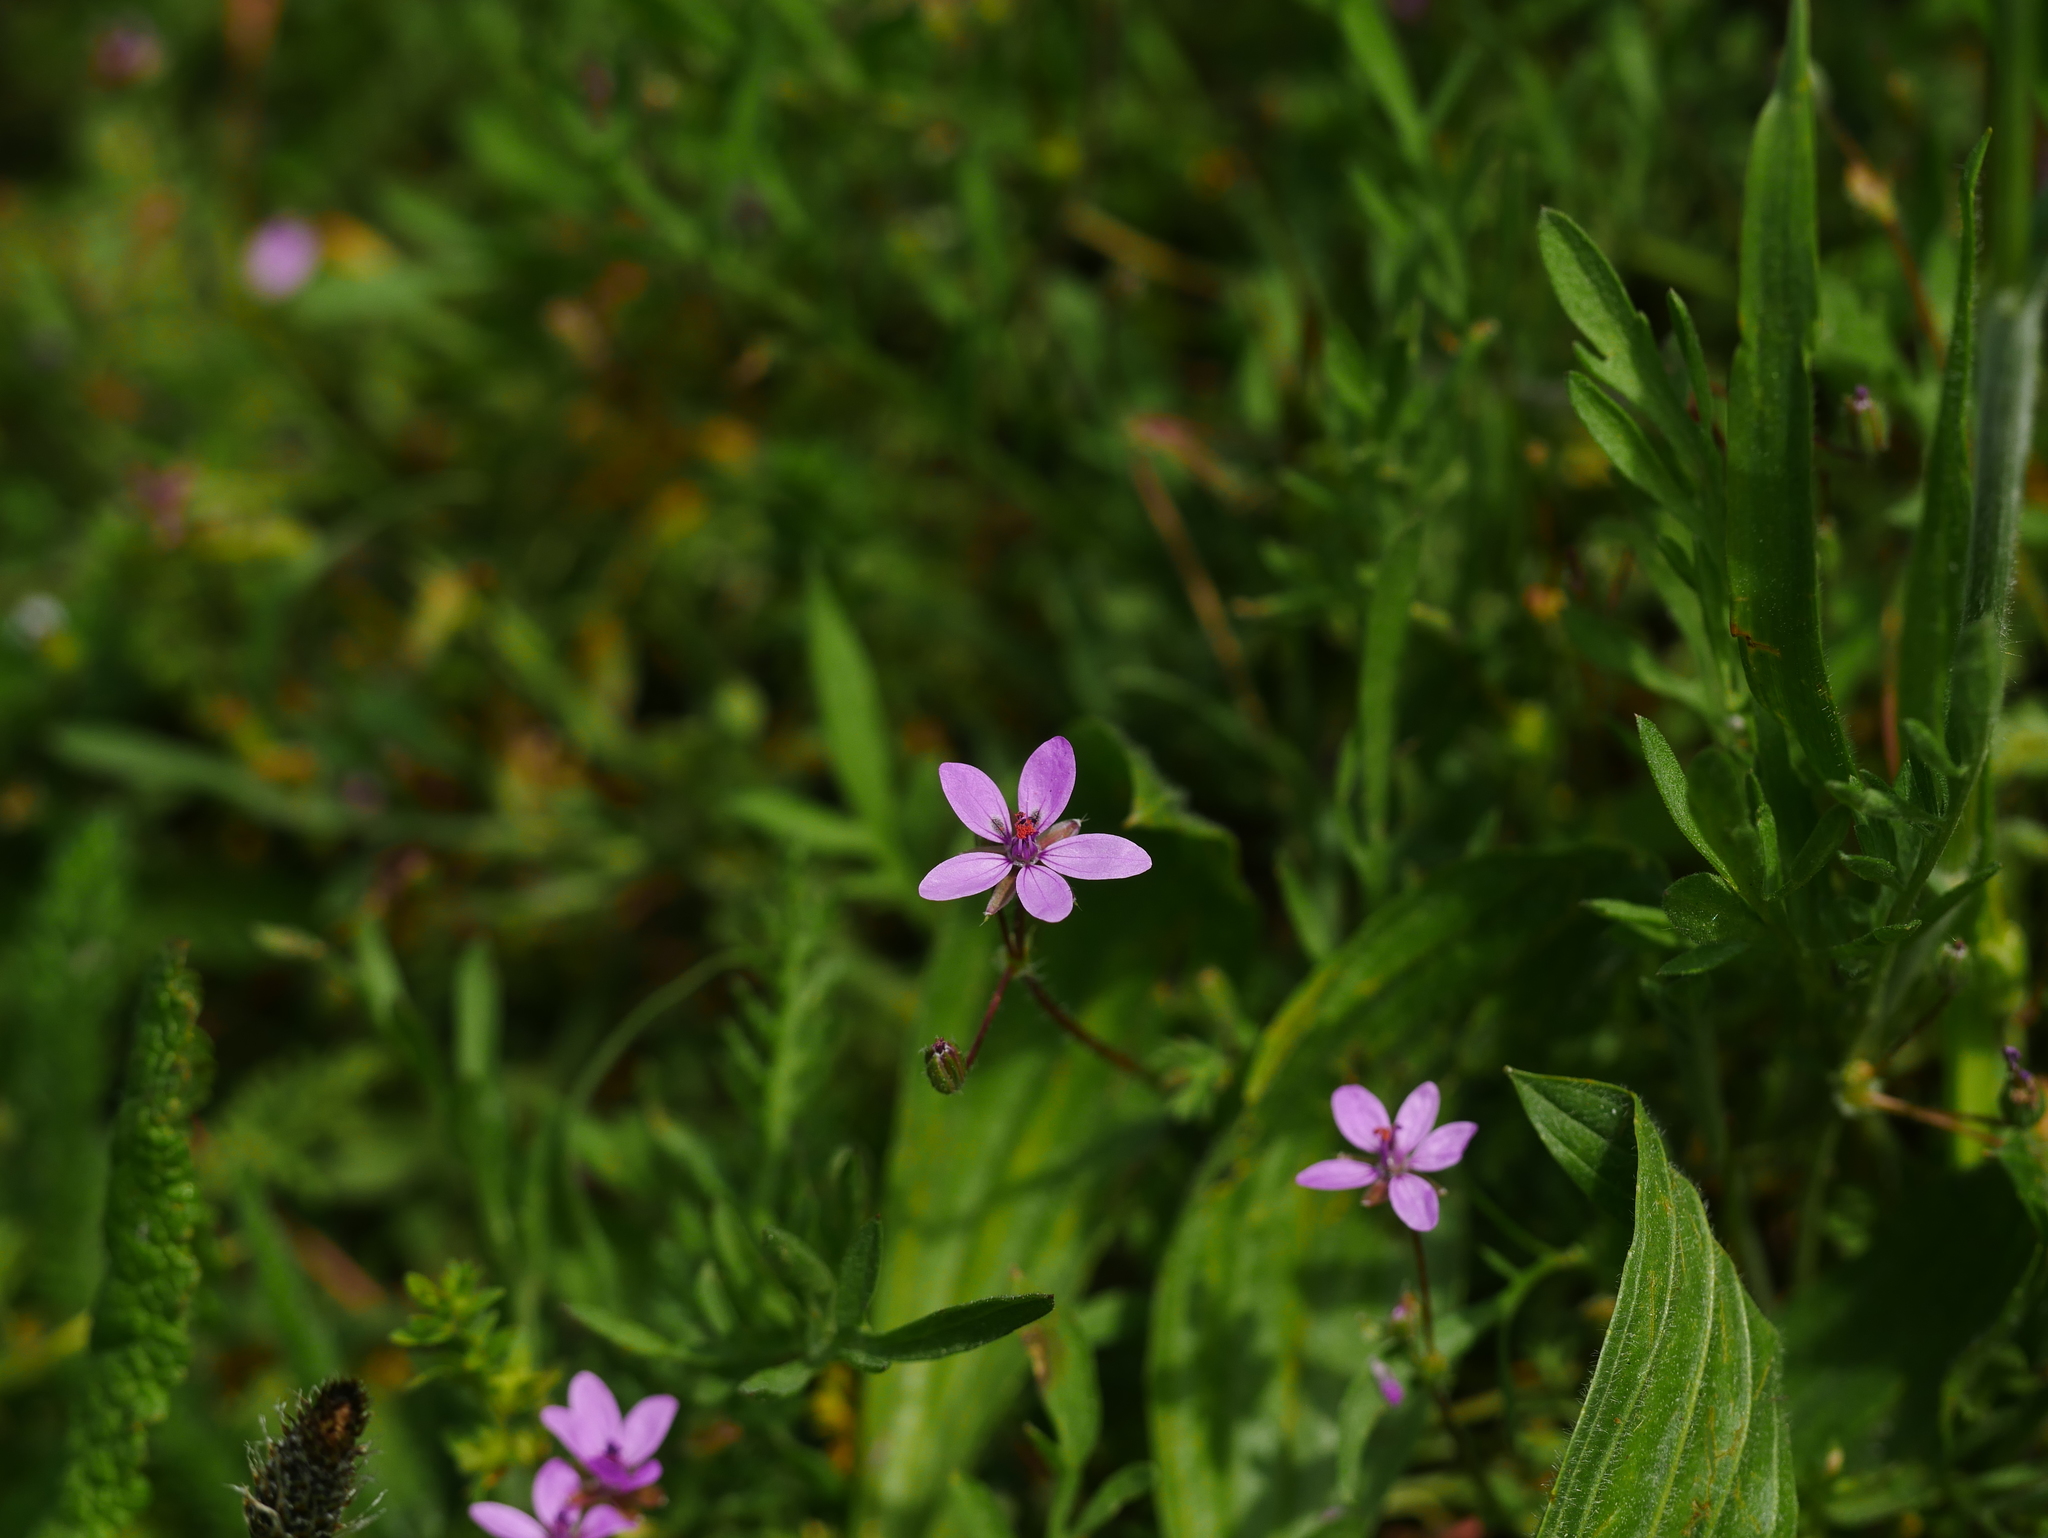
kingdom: Plantae
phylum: Tracheophyta
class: Magnoliopsida
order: Geraniales
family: Geraniaceae
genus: Erodium
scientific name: Erodium cicutarium
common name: Common stork's-bill
